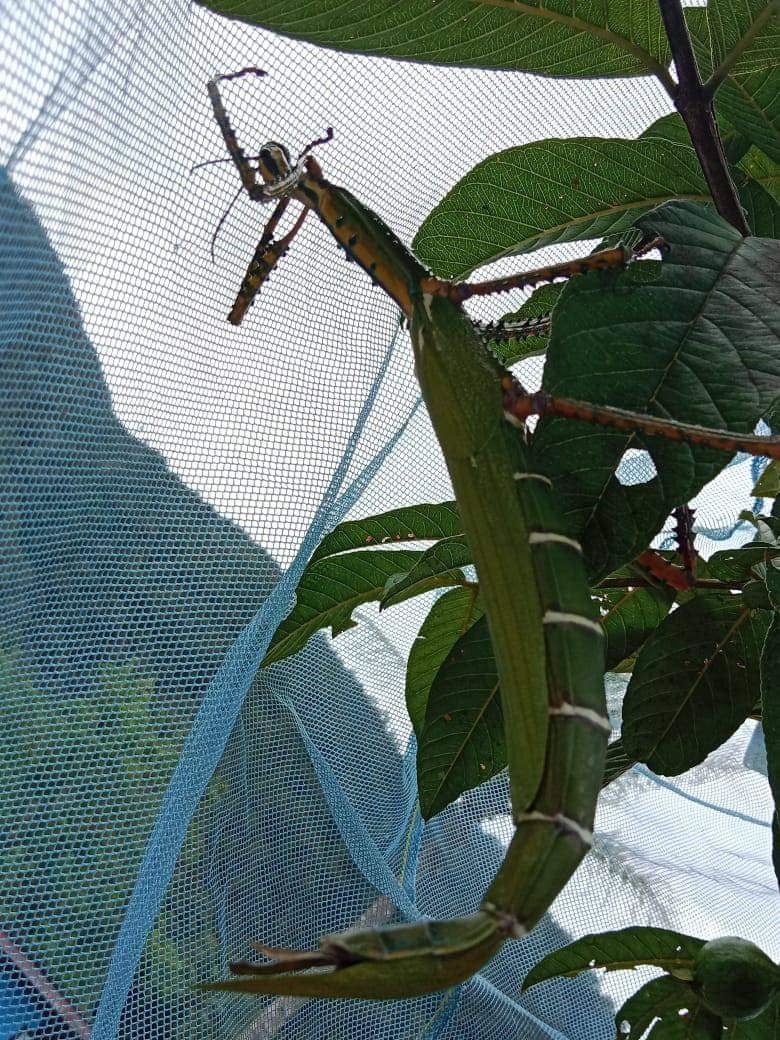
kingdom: Animalia
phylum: Arthropoda
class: Insecta
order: Phasmida
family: Phasmatidae
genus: Eurycnema
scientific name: Eurycnema nigrospinosa
